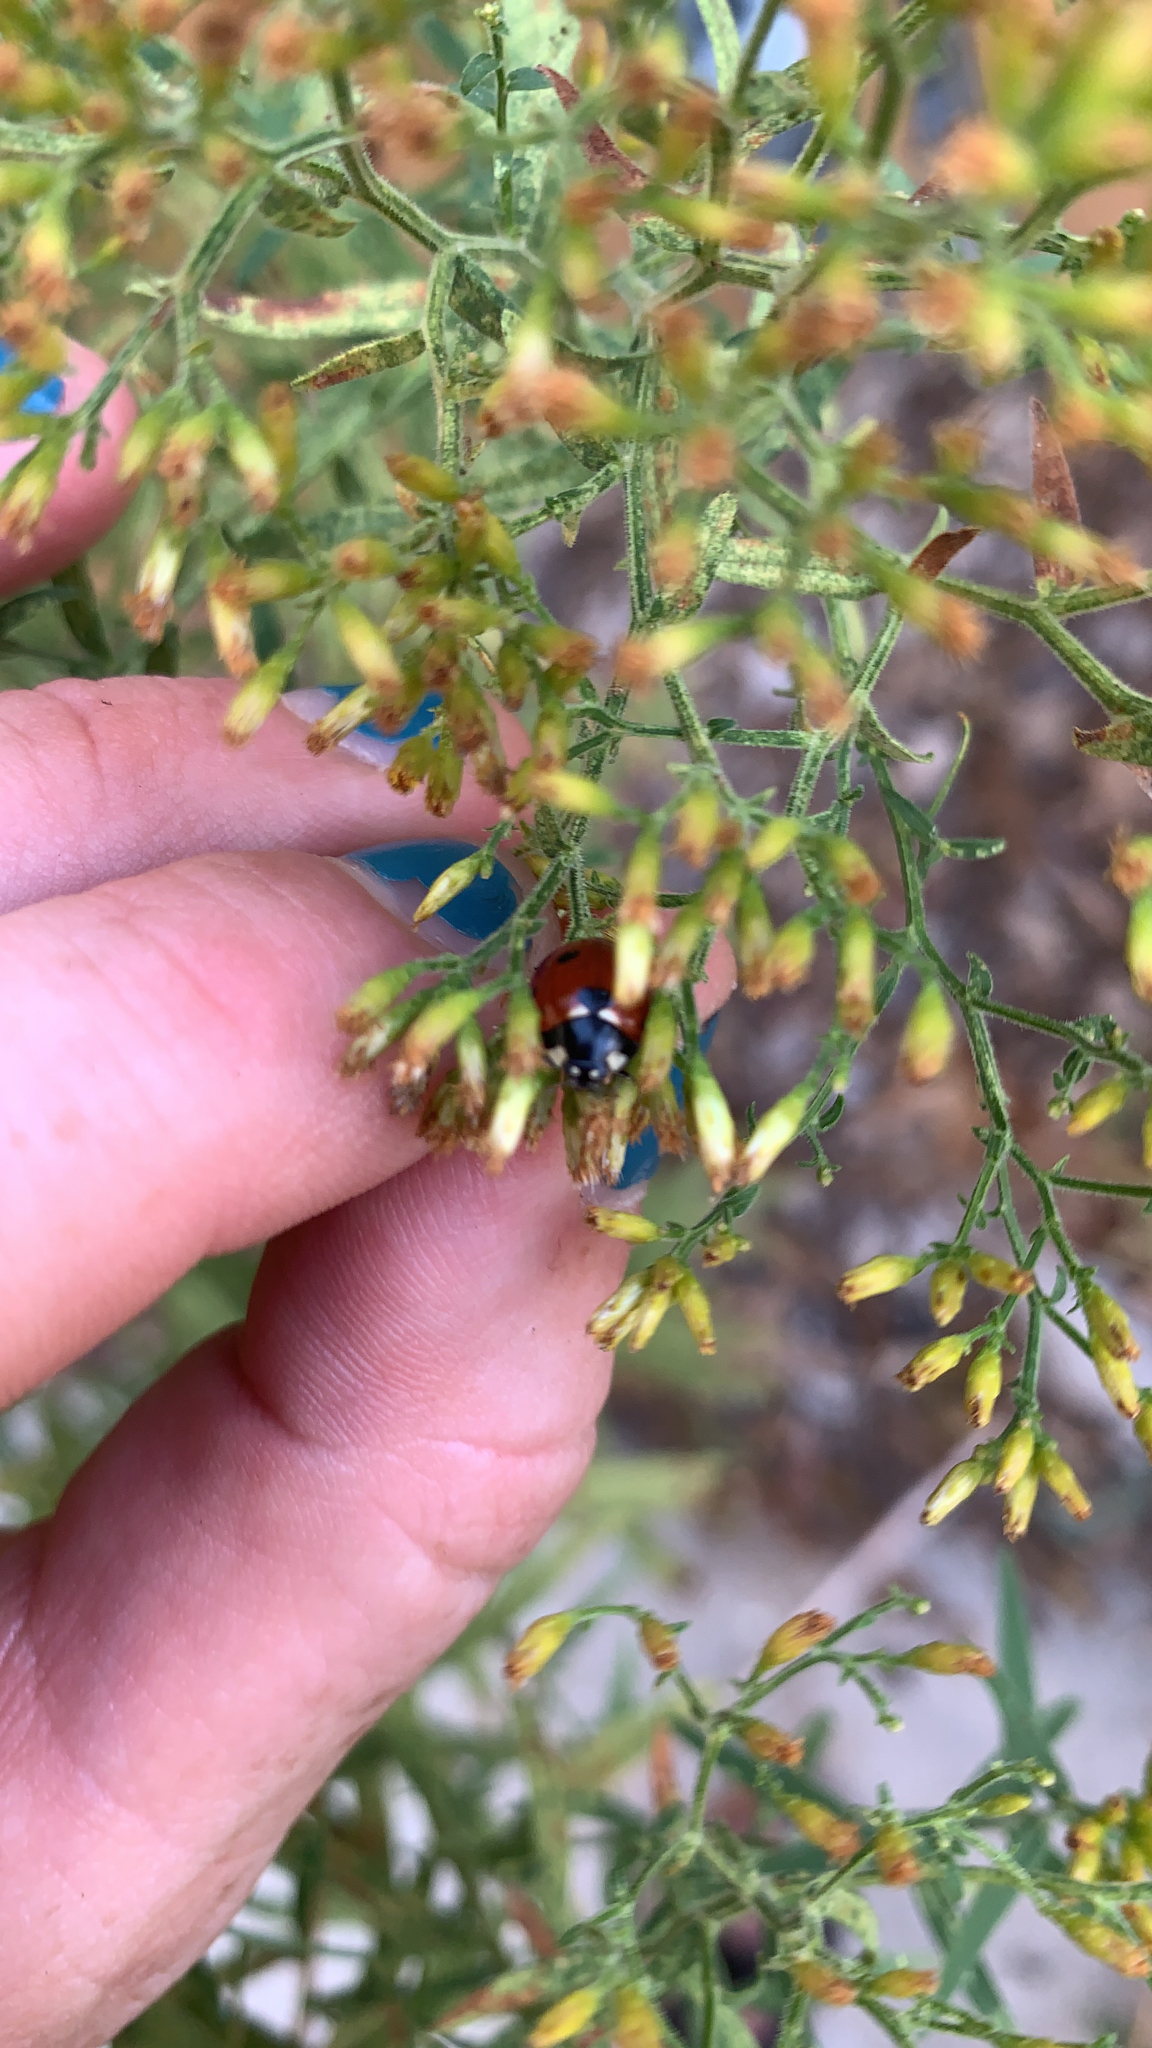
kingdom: Animalia
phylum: Arthropoda
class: Insecta
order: Coleoptera
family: Coccinellidae
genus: Coccinella
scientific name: Coccinella septempunctata
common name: Sevenspotted lady beetle
